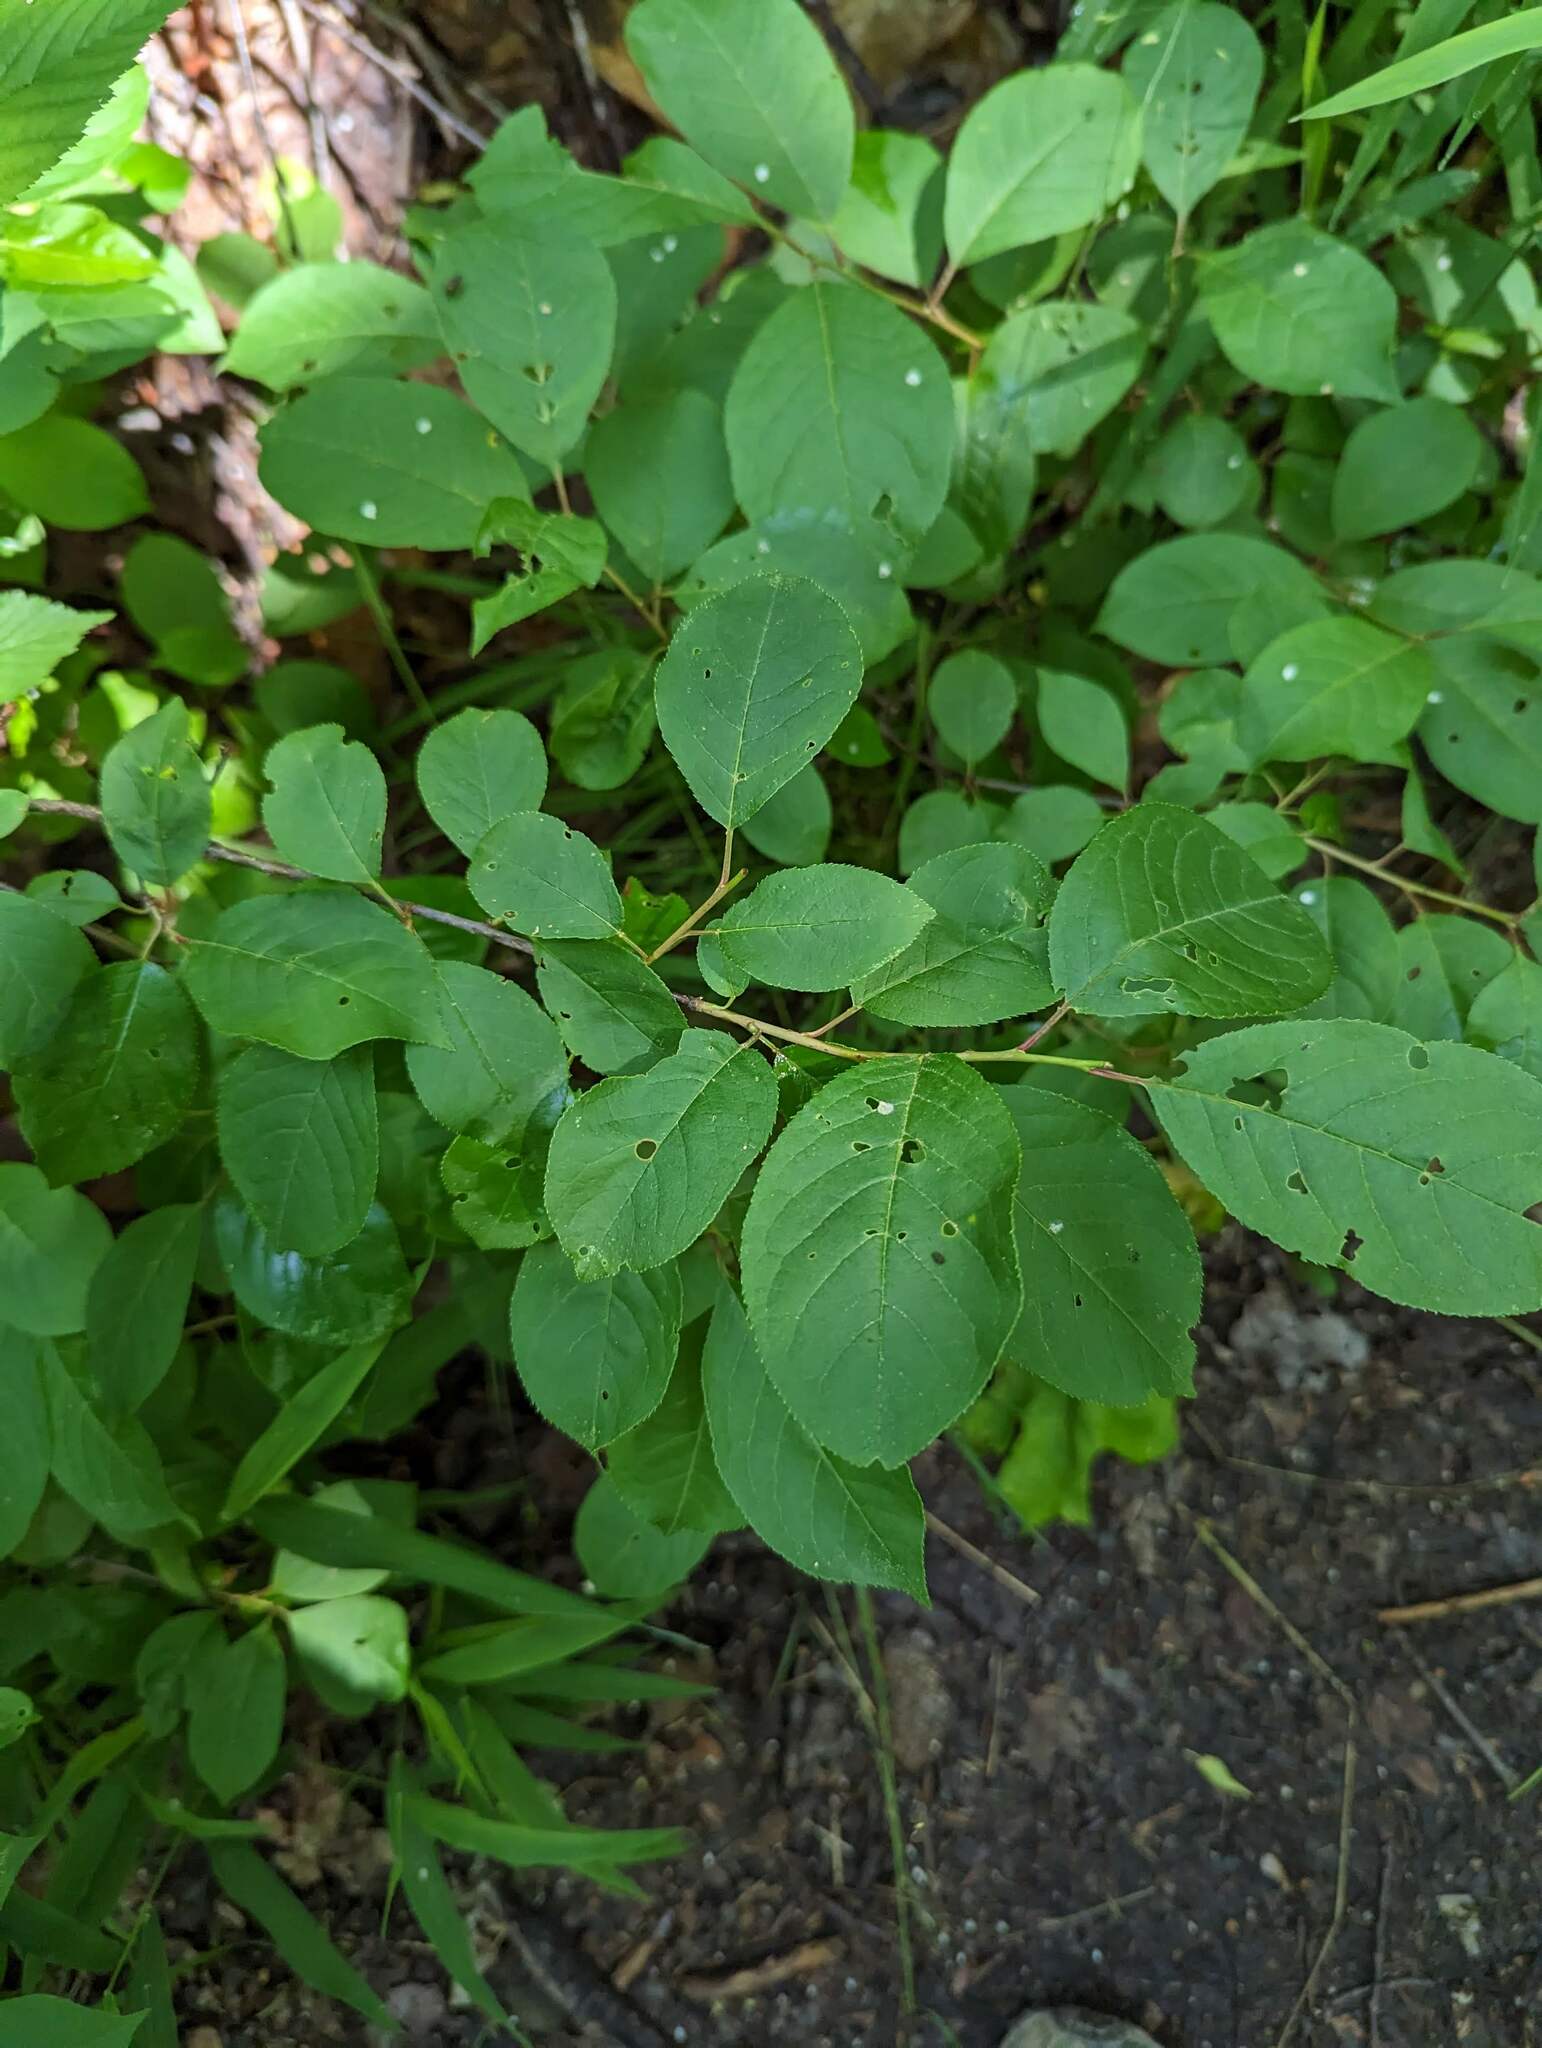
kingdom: Plantae
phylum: Tracheophyta
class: Magnoliopsida
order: Rosales
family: Rosaceae
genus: Prunus
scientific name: Prunus virginiana
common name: Chokecherry
